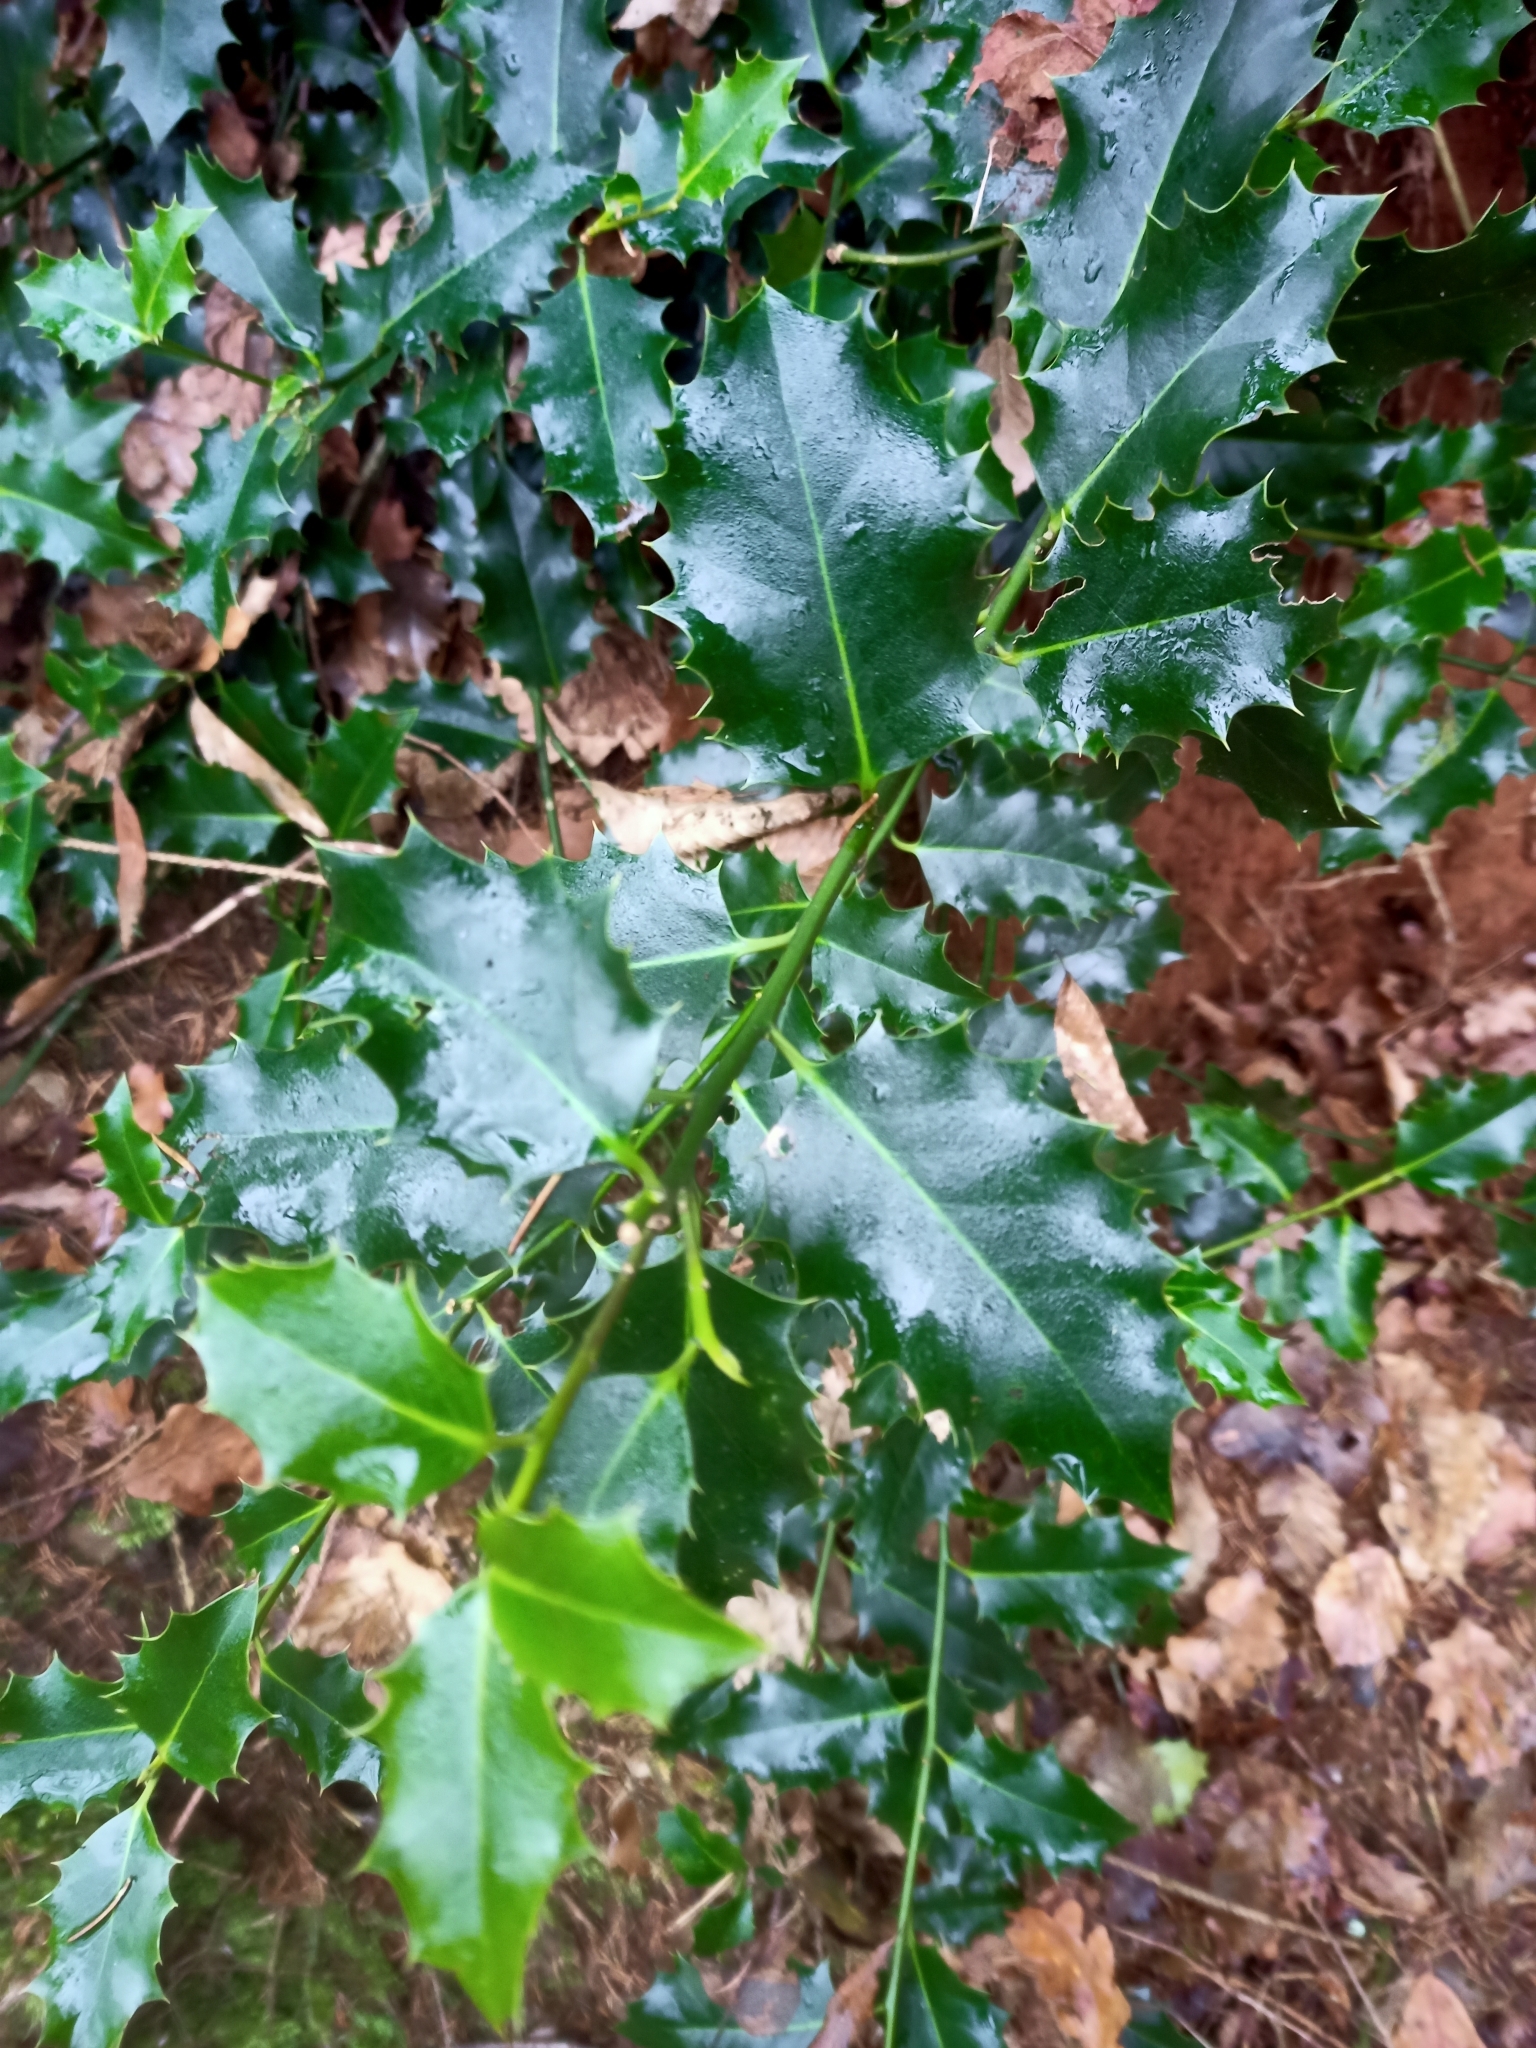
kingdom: Plantae
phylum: Tracheophyta
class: Magnoliopsida
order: Aquifoliales
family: Aquifoliaceae
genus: Ilex
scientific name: Ilex aquifolium
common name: English holly
